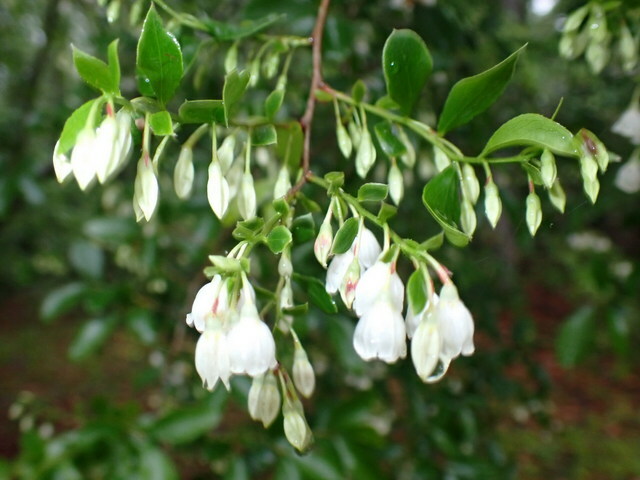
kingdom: Plantae
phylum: Tracheophyta
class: Magnoliopsida
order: Ericales
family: Ericaceae
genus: Vaccinium
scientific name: Vaccinium arboreum
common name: Farkleberry
